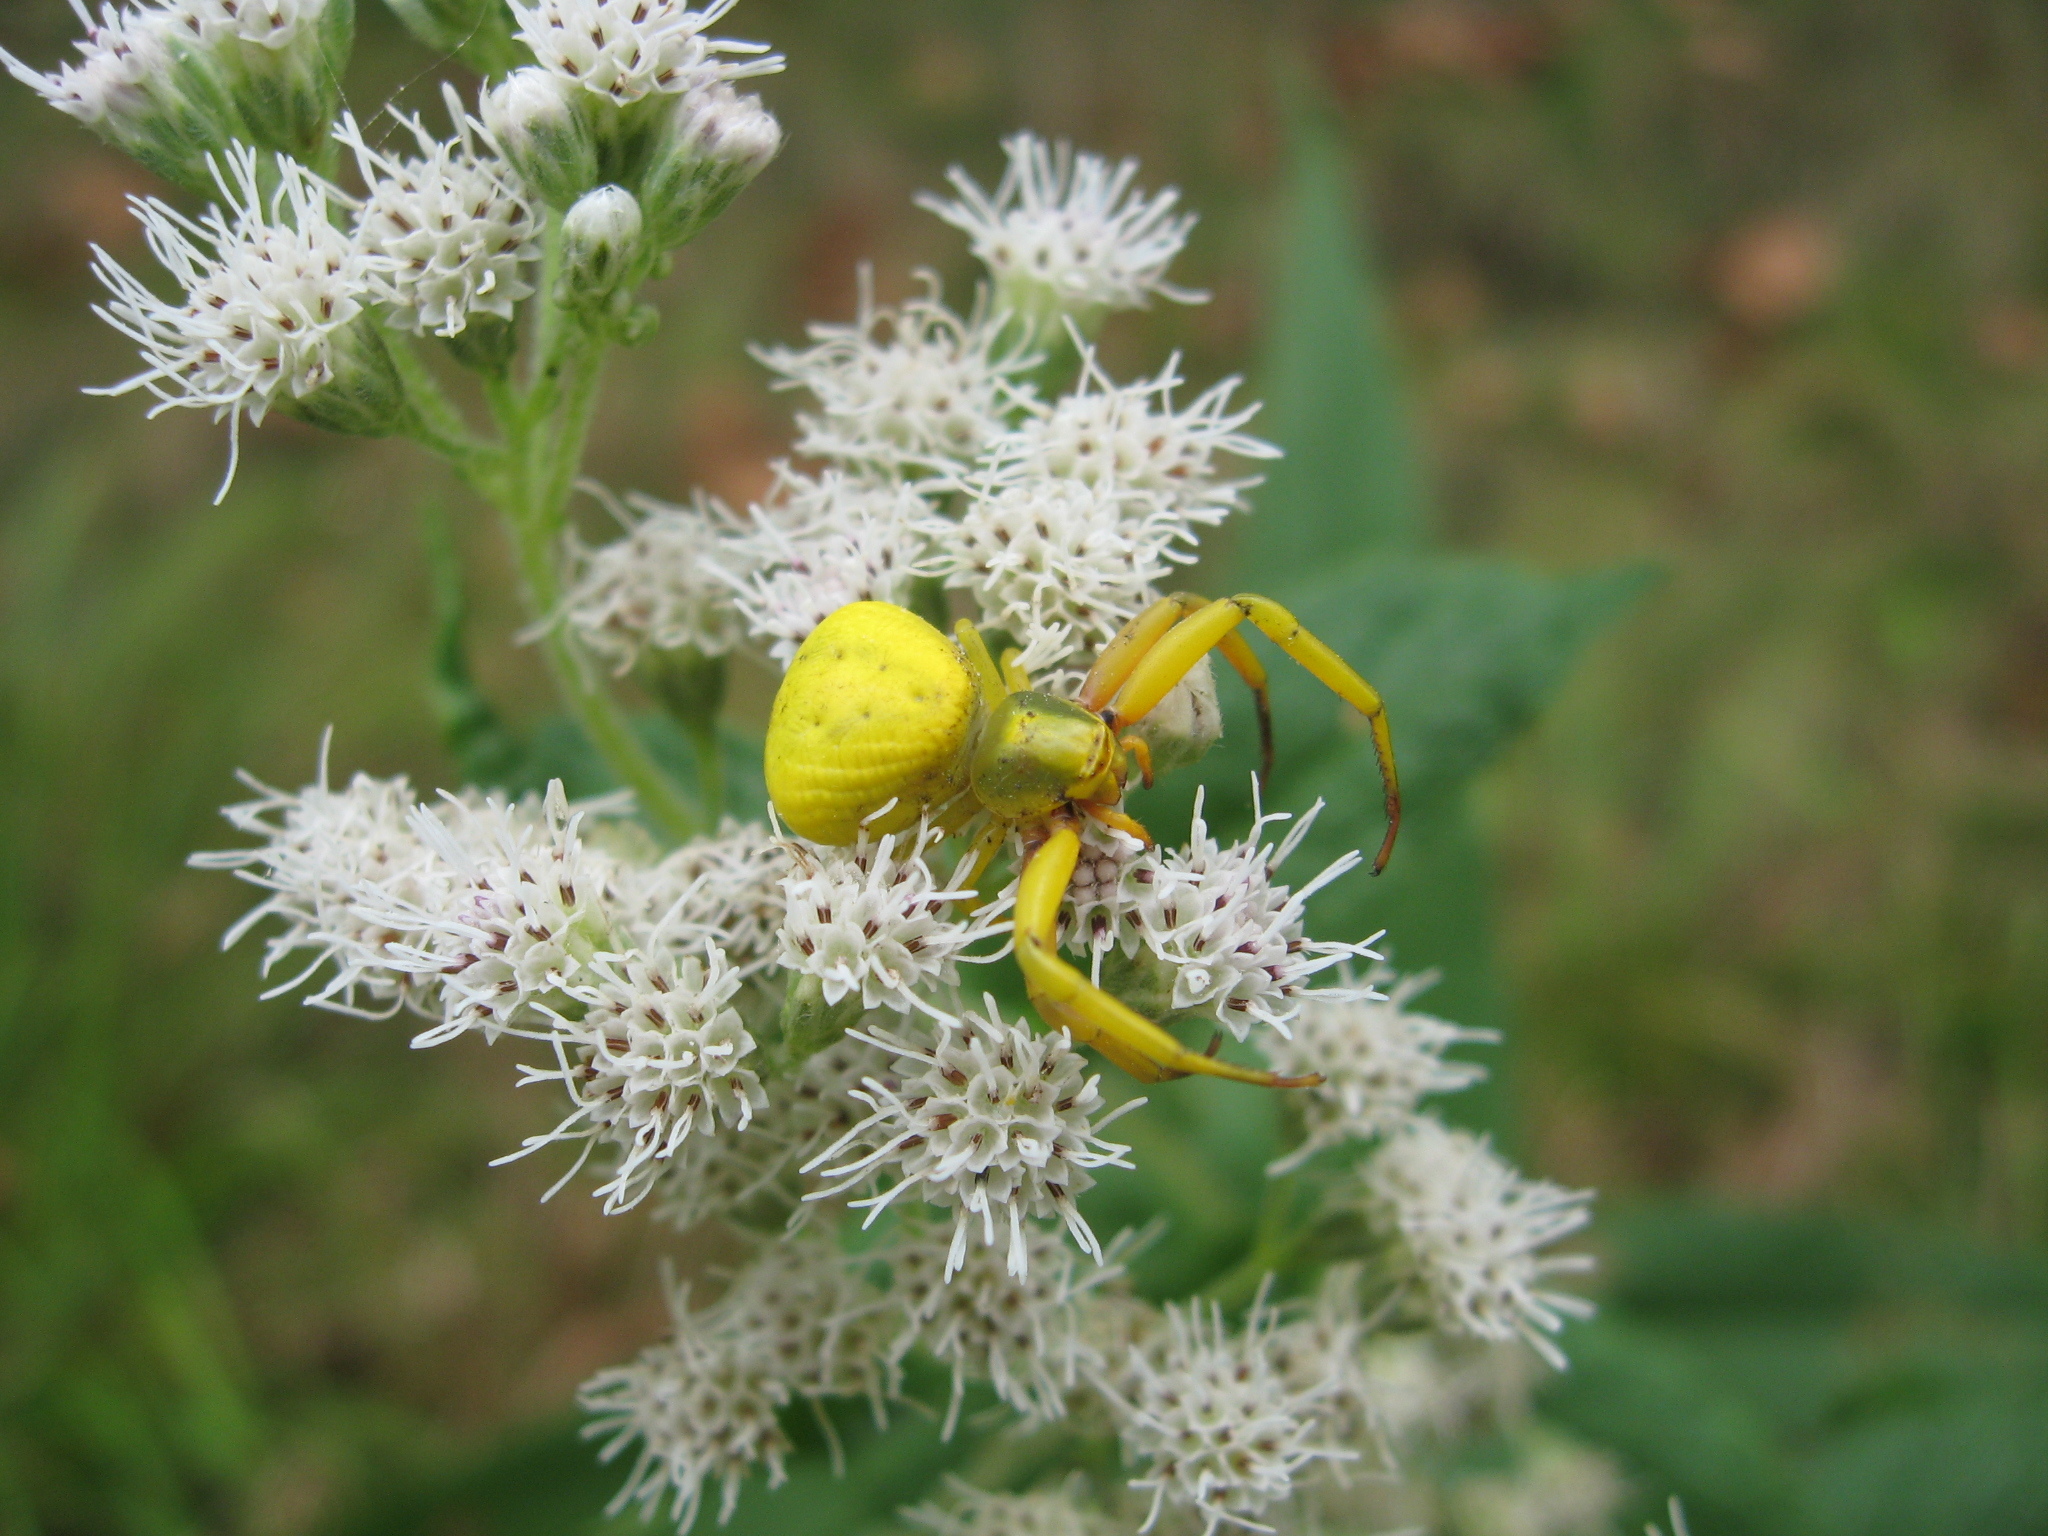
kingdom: Animalia
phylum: Arthropoda
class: Arachnida
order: Araneae
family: Thomisidae
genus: Misumenoides
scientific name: Misumenoides formosipes
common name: White-banded crab spider
